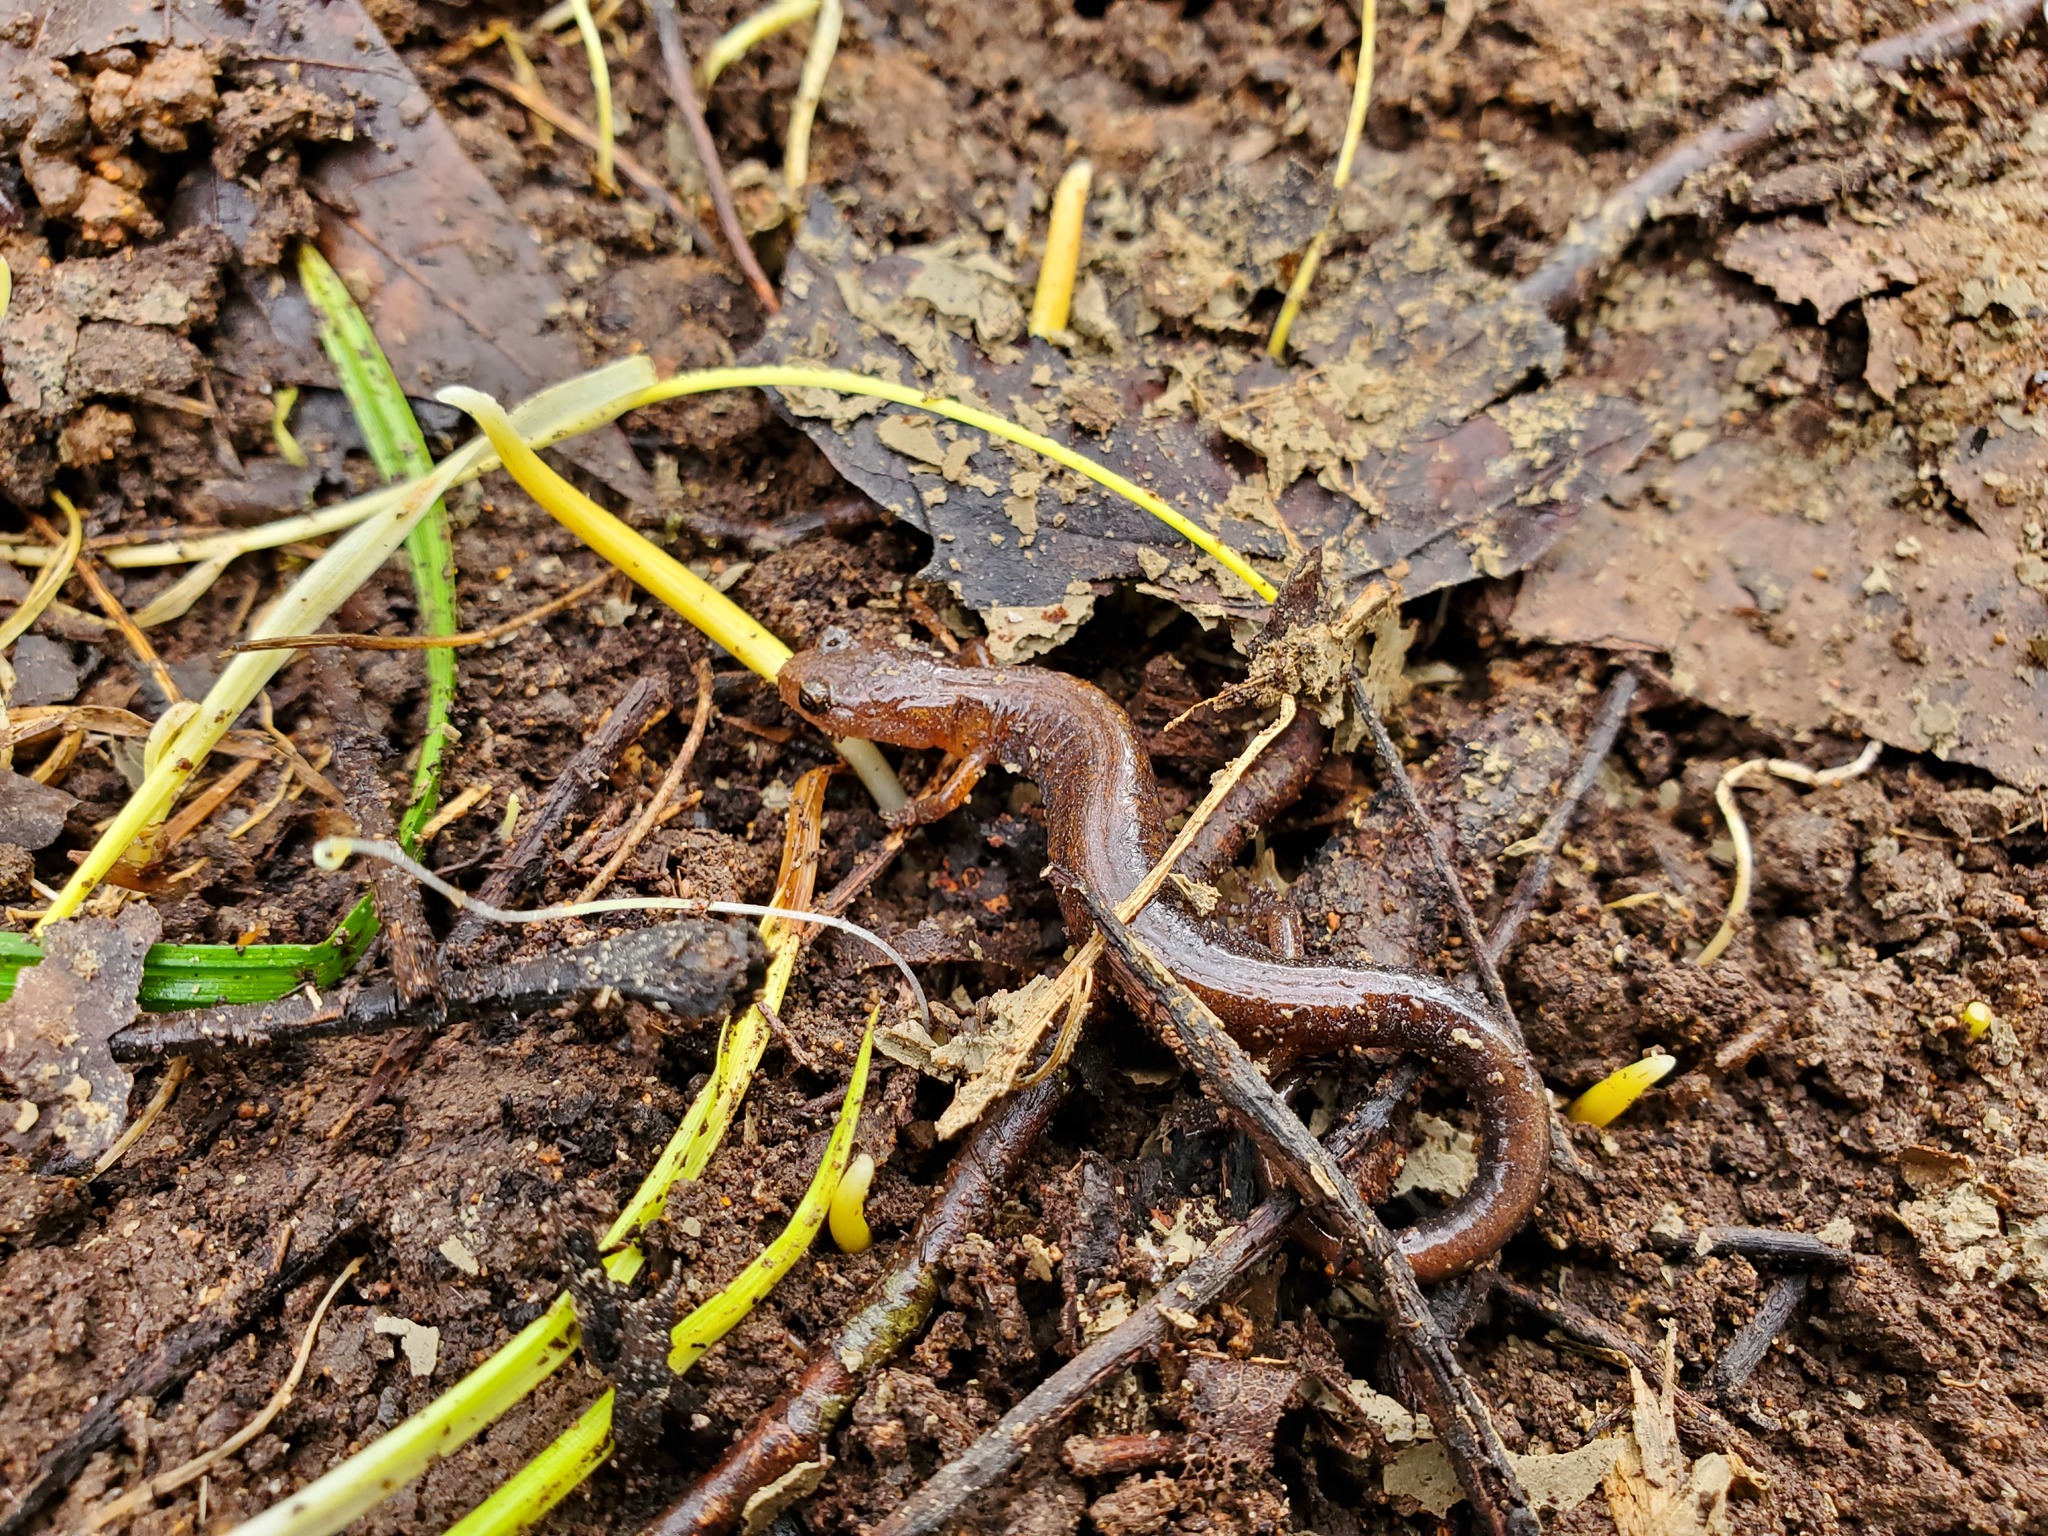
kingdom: Animalia
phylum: Chordata
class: Amphibia
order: Caudata
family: Plethodontidae
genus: Plethodon
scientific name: Plethodon dorsalis
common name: Northern zigzag salamander
